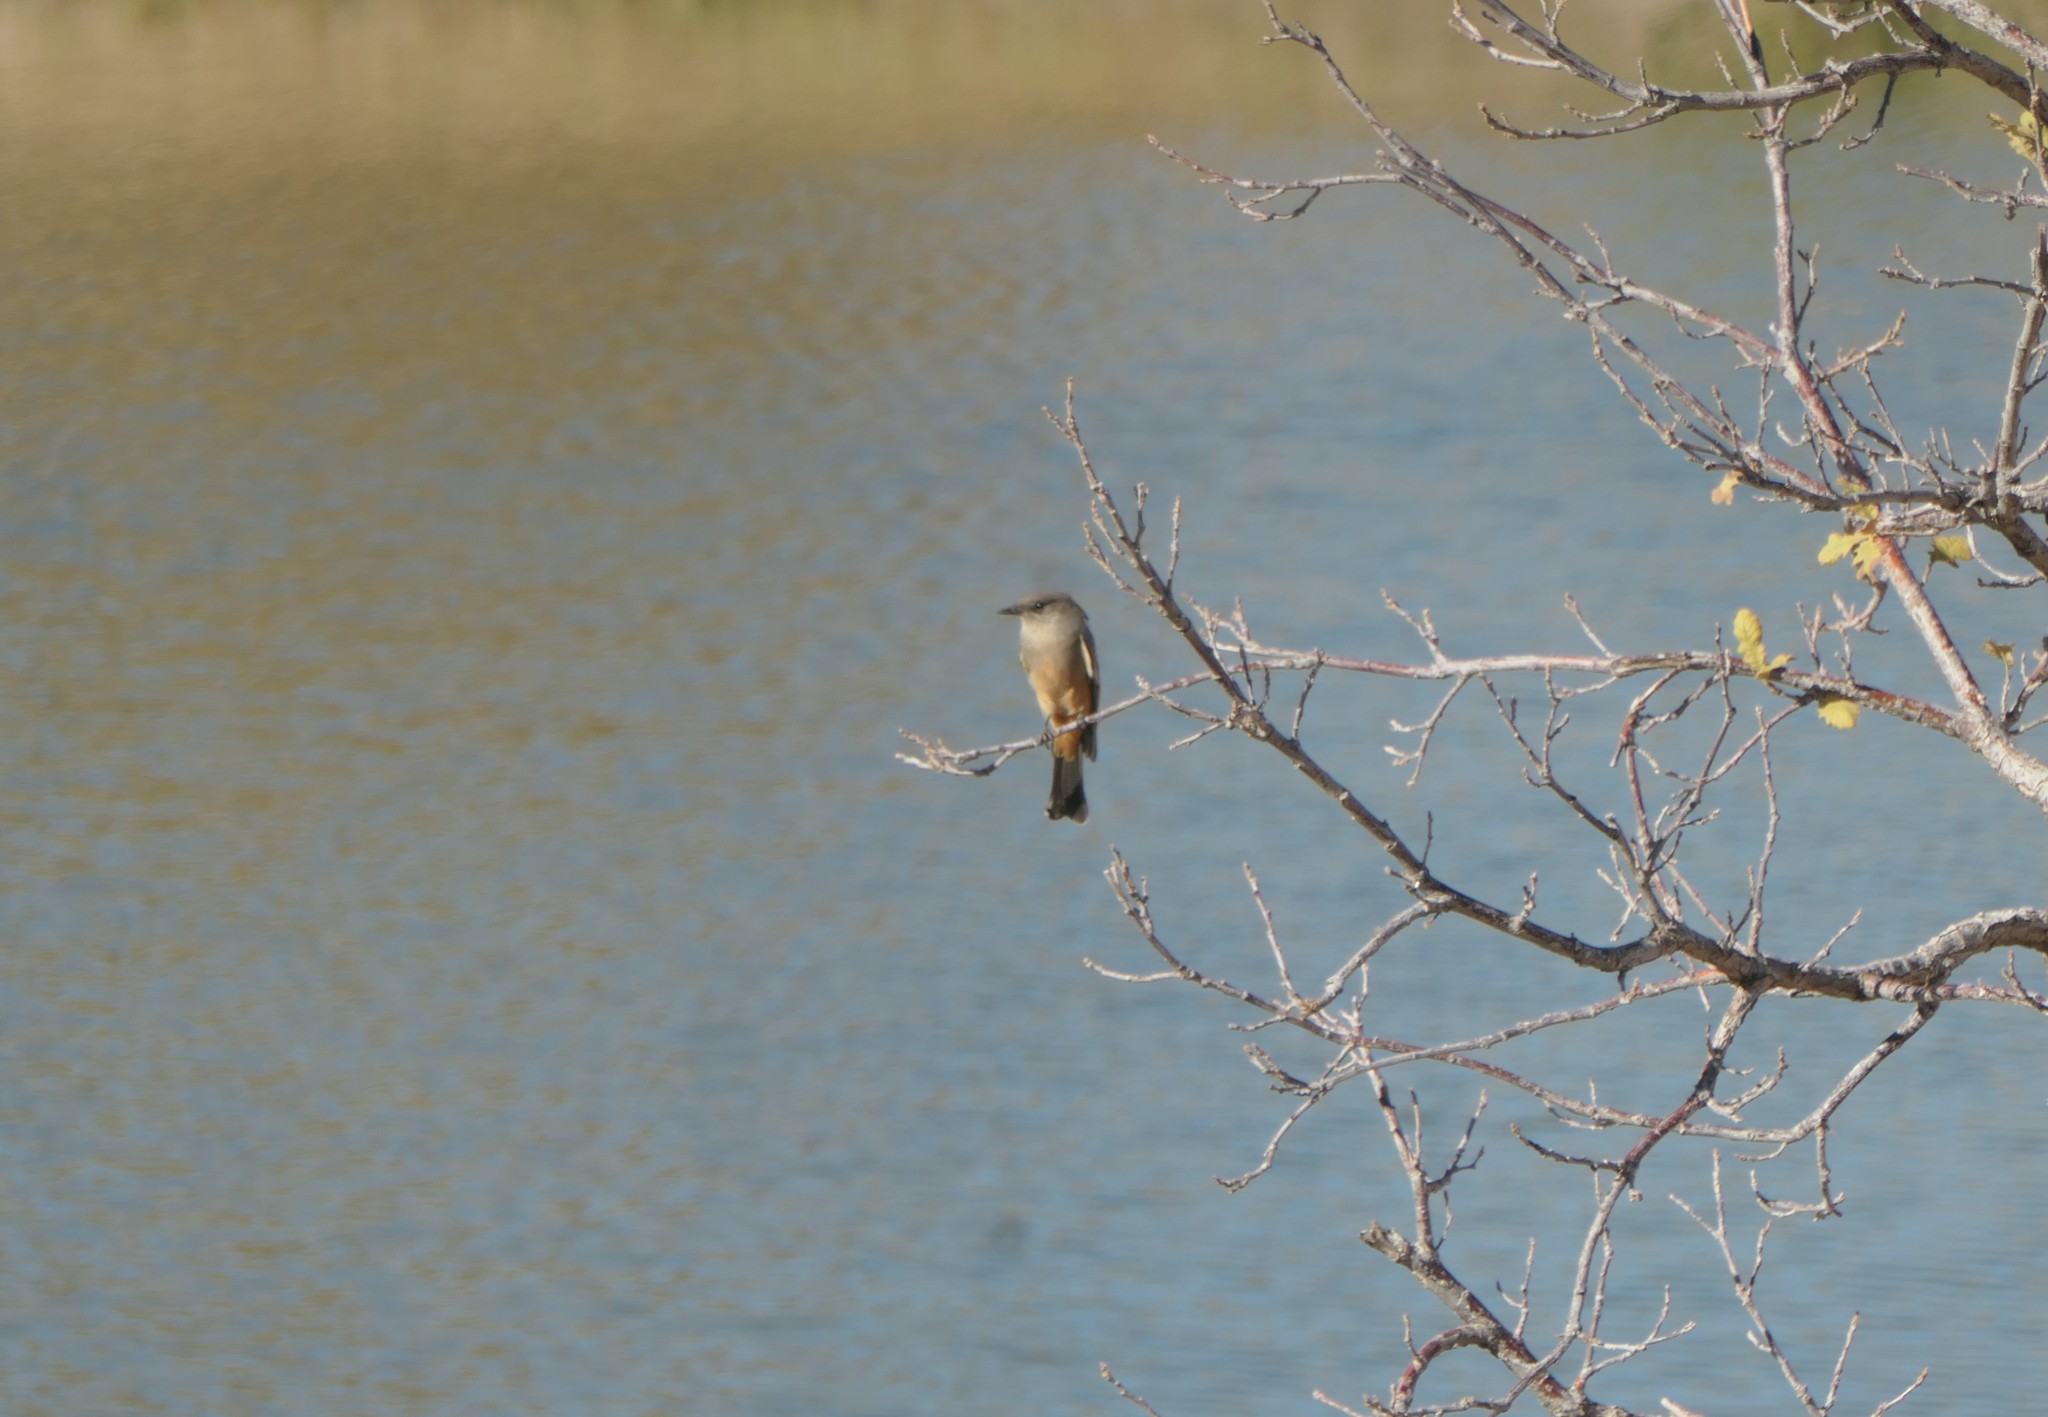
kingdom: Animalia
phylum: Chordata
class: Aves
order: Passeriformes
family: Tyrannidae
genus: Sayornis
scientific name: Sayornis saya
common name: Say's phoebe
